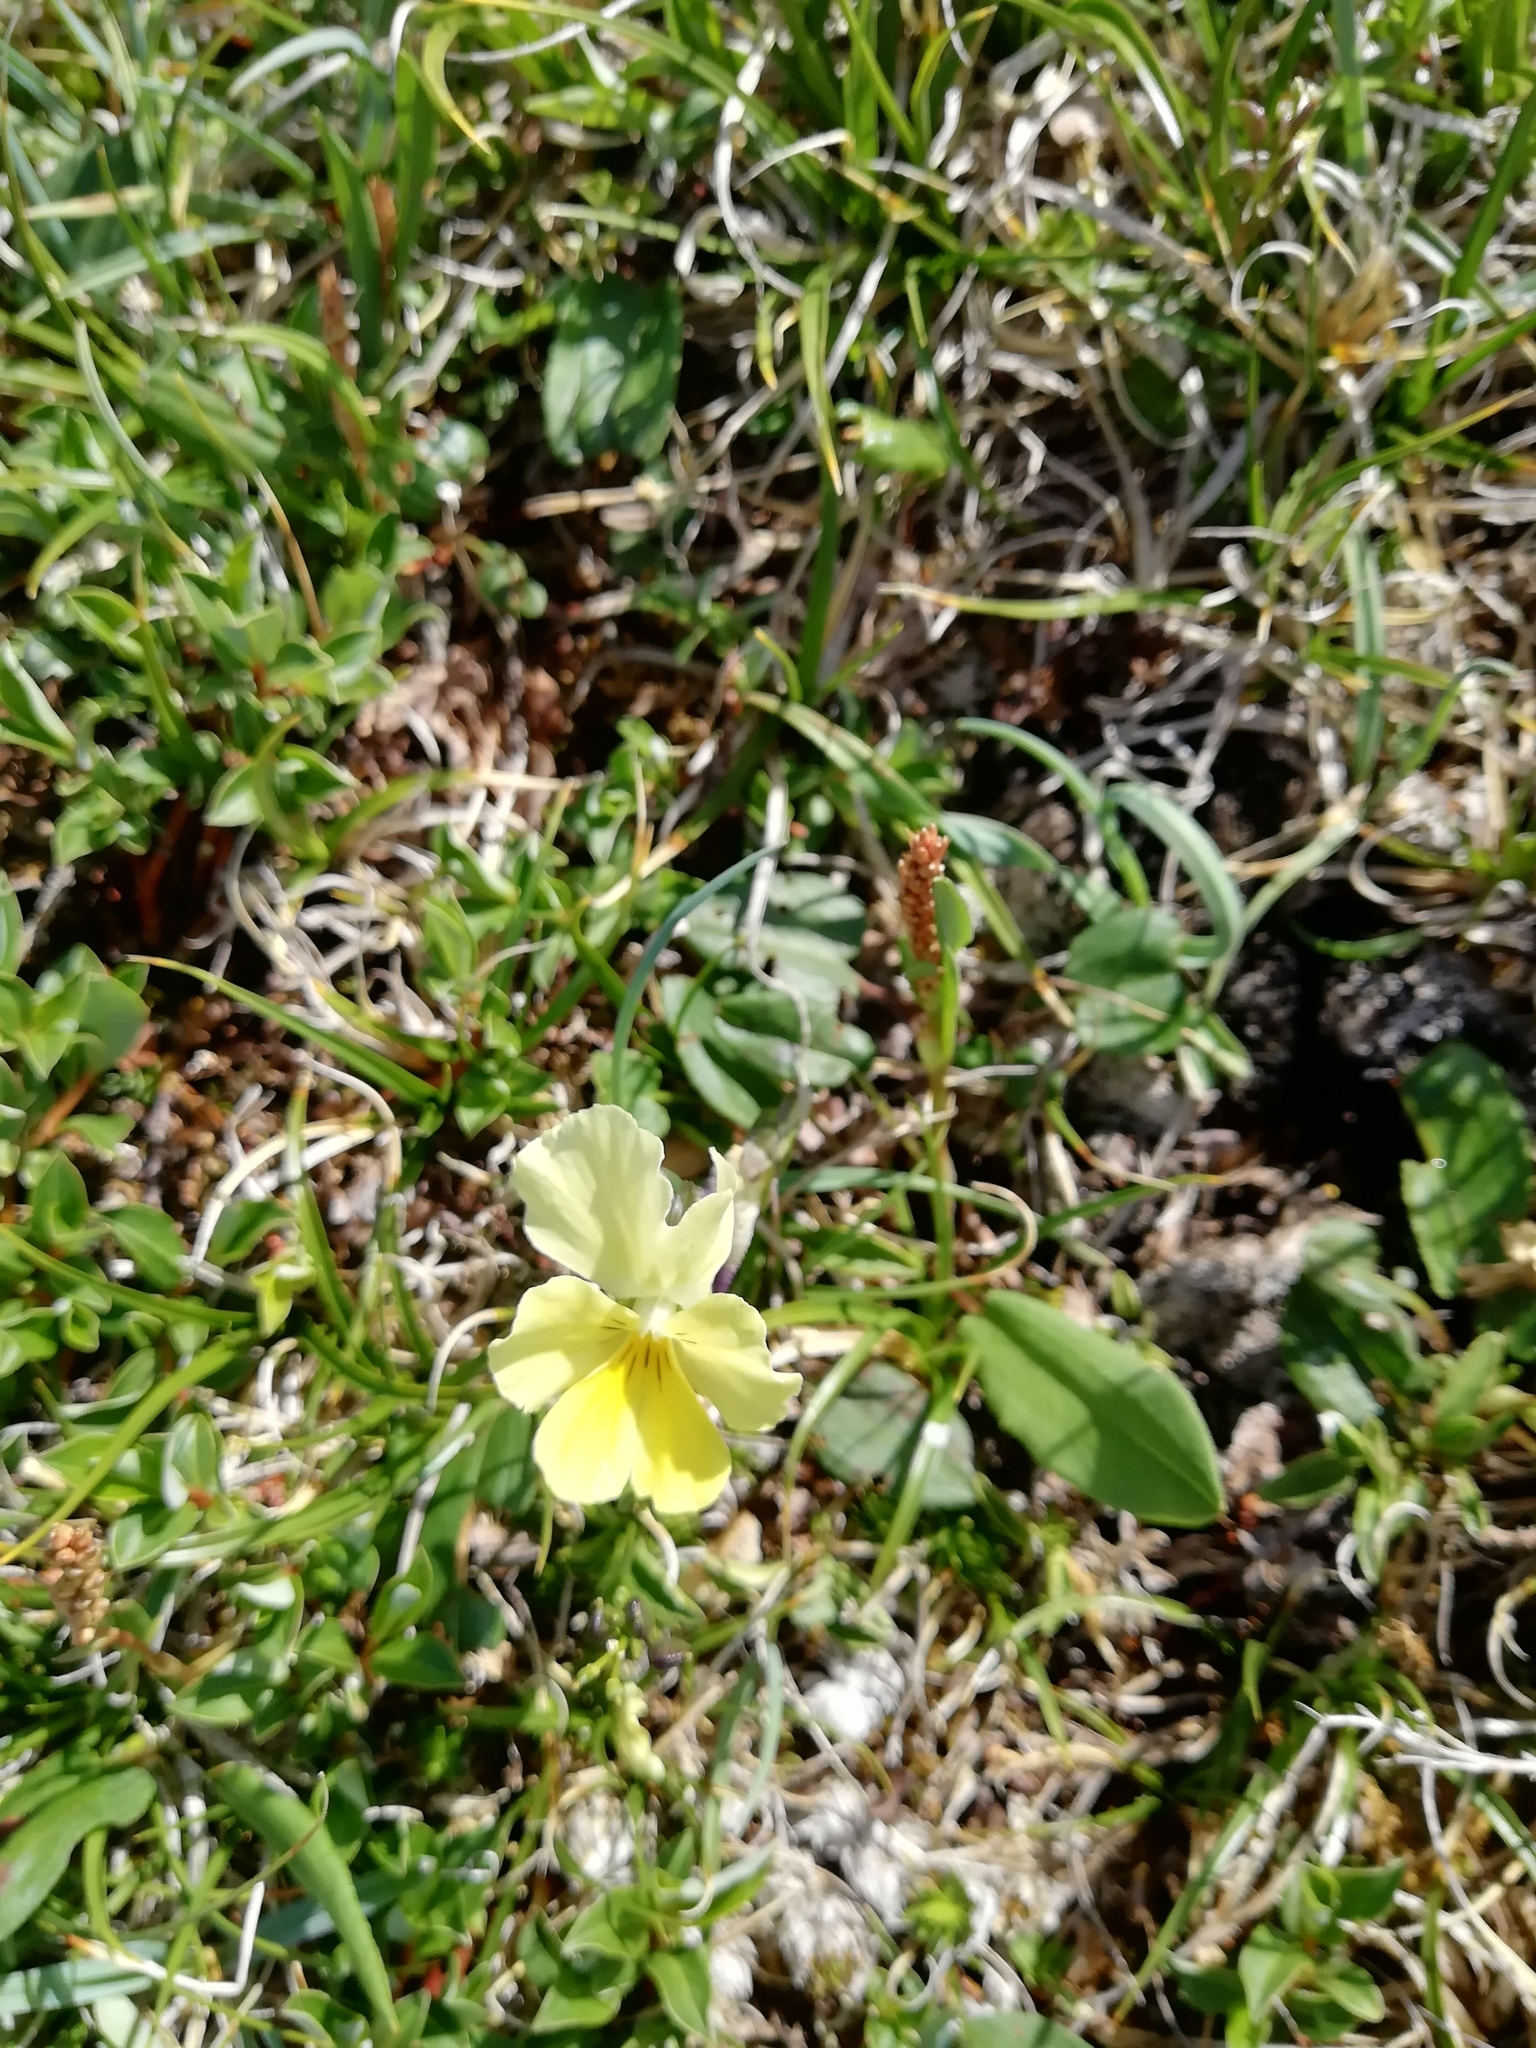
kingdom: Plantae
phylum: Tracheophyta
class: Magnoliopsida
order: Malpighiales
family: Violaceae
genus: Viola
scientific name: Viola oreades
